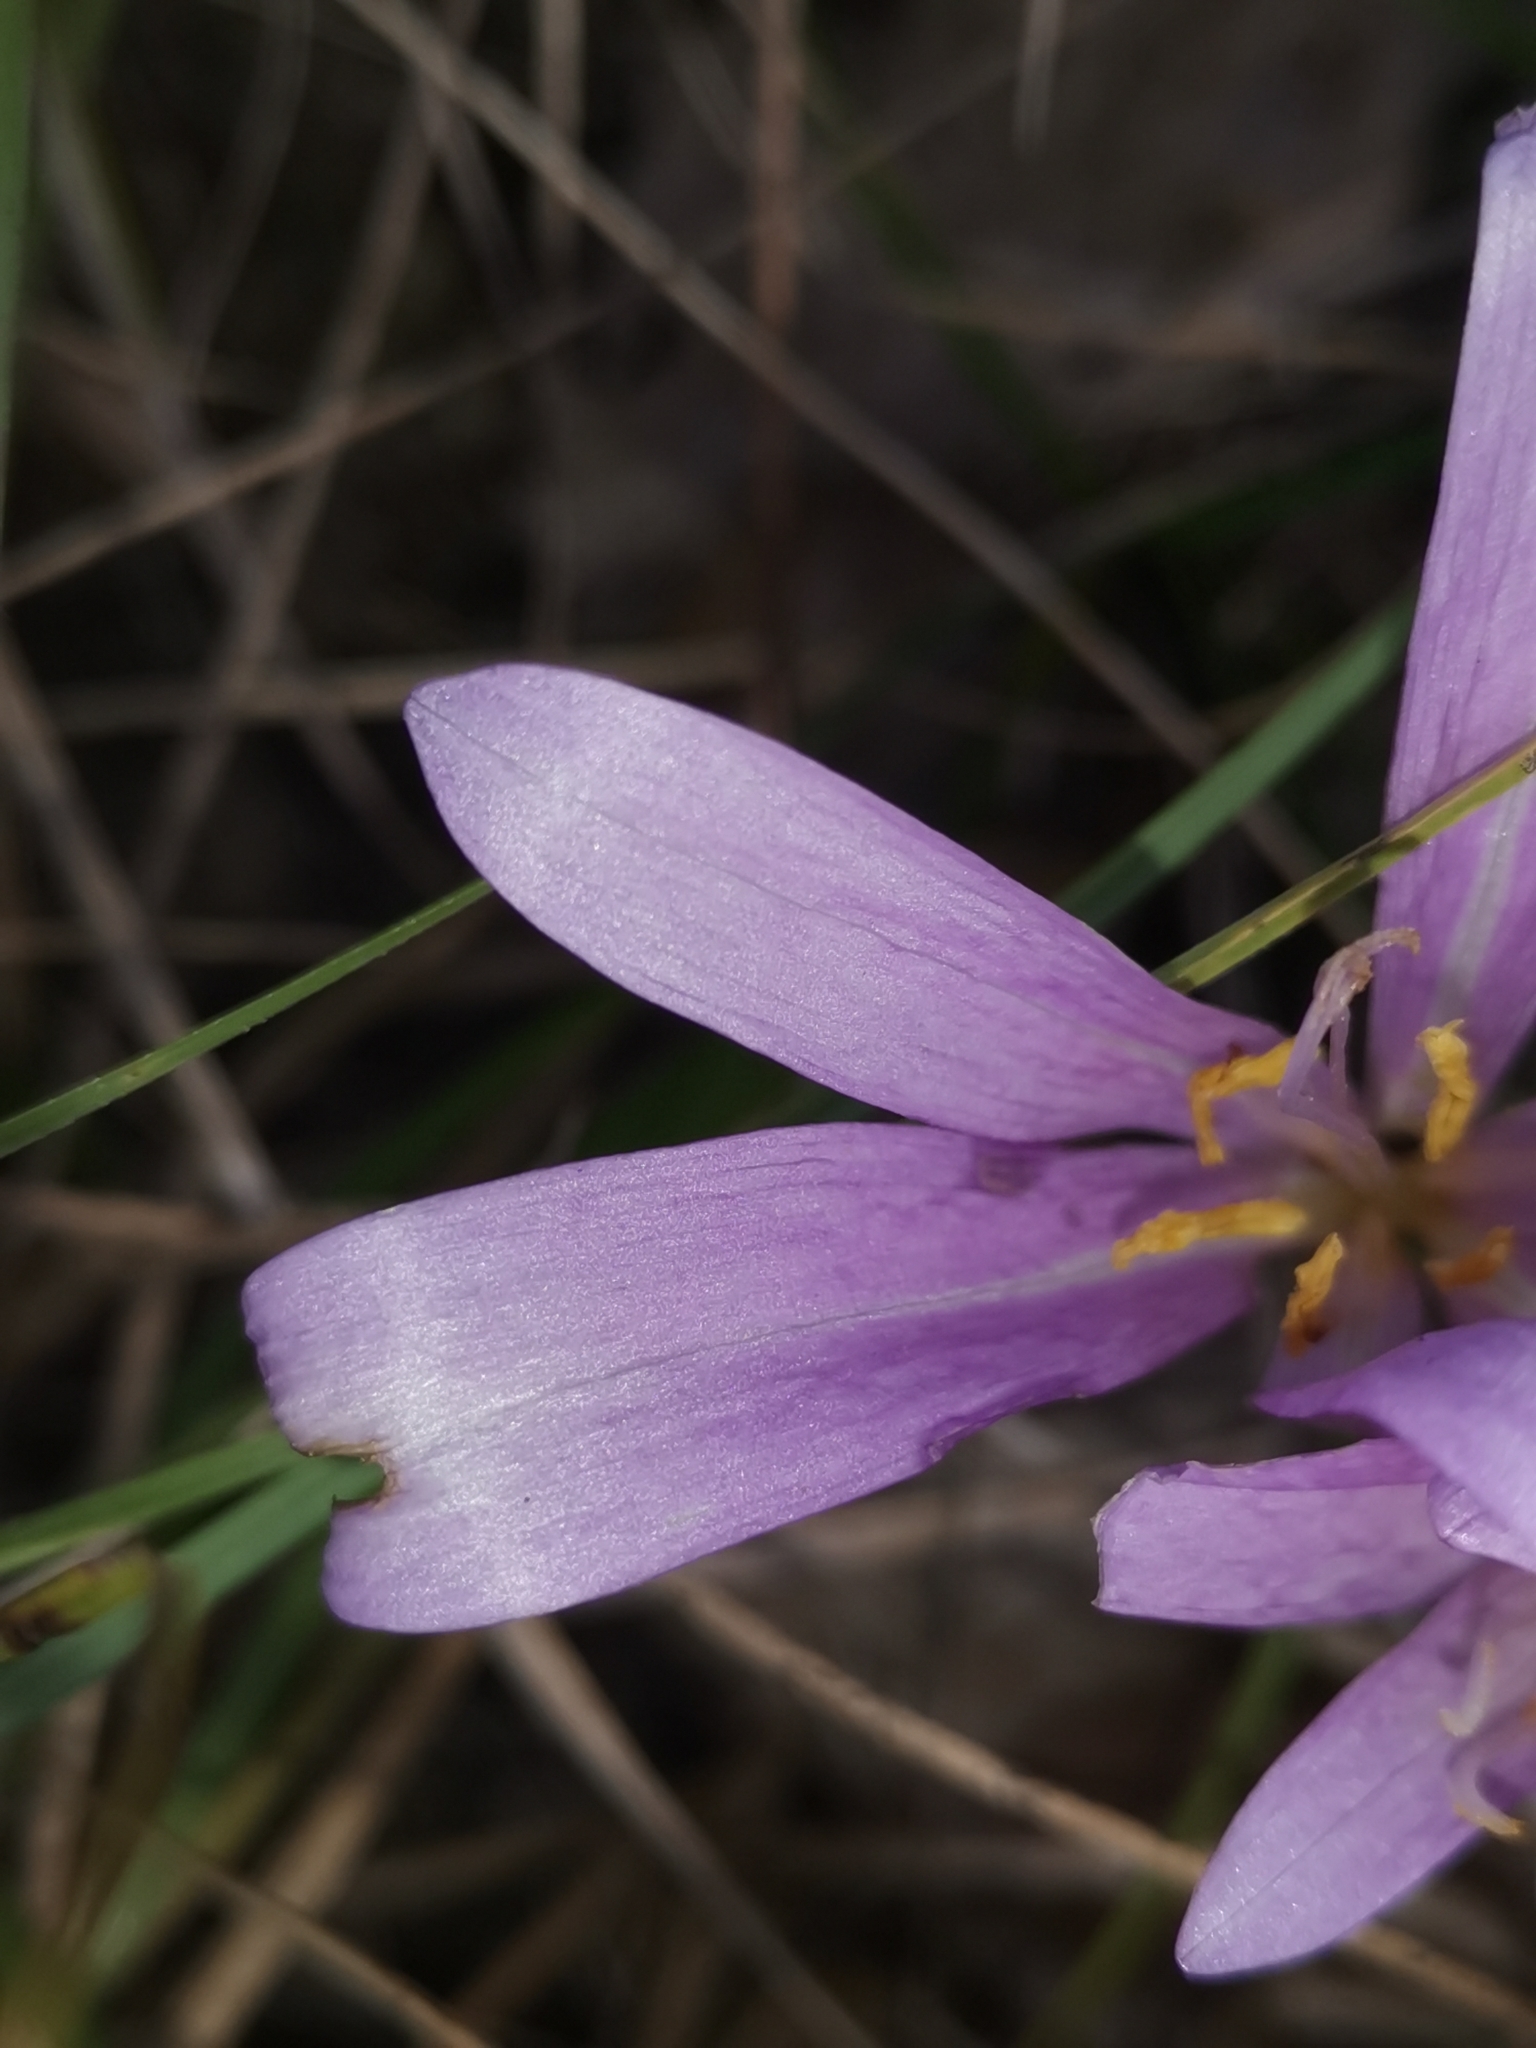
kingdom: Plantae
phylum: Tracheophyta
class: Liliopsida
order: Liliales
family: Colchicaceae
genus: Colchicum
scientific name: Colchicum haynaldii
